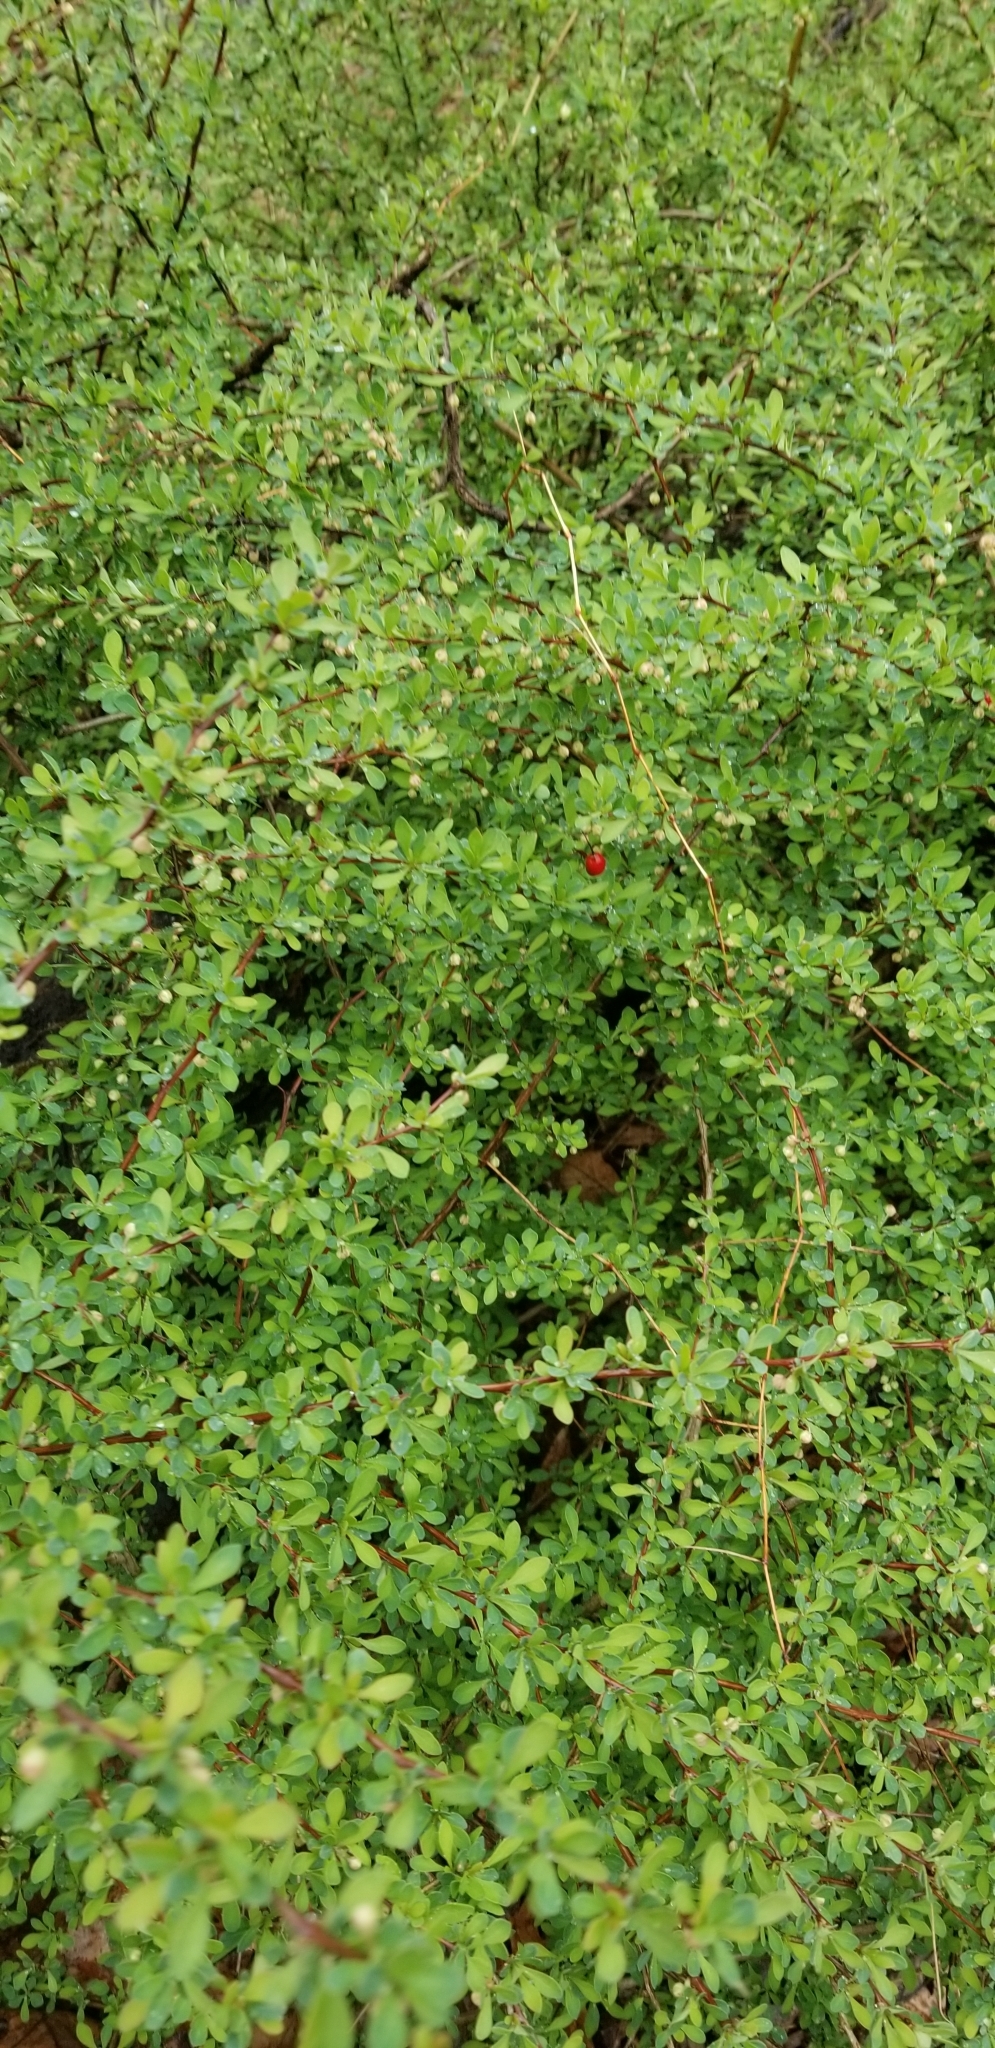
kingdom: Plantae
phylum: Tracheophyta
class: Magnoliopsida
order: Ranunculales
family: Berberidaceae
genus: Berberis
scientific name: Berberis thunbergii
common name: Japanese barberry
